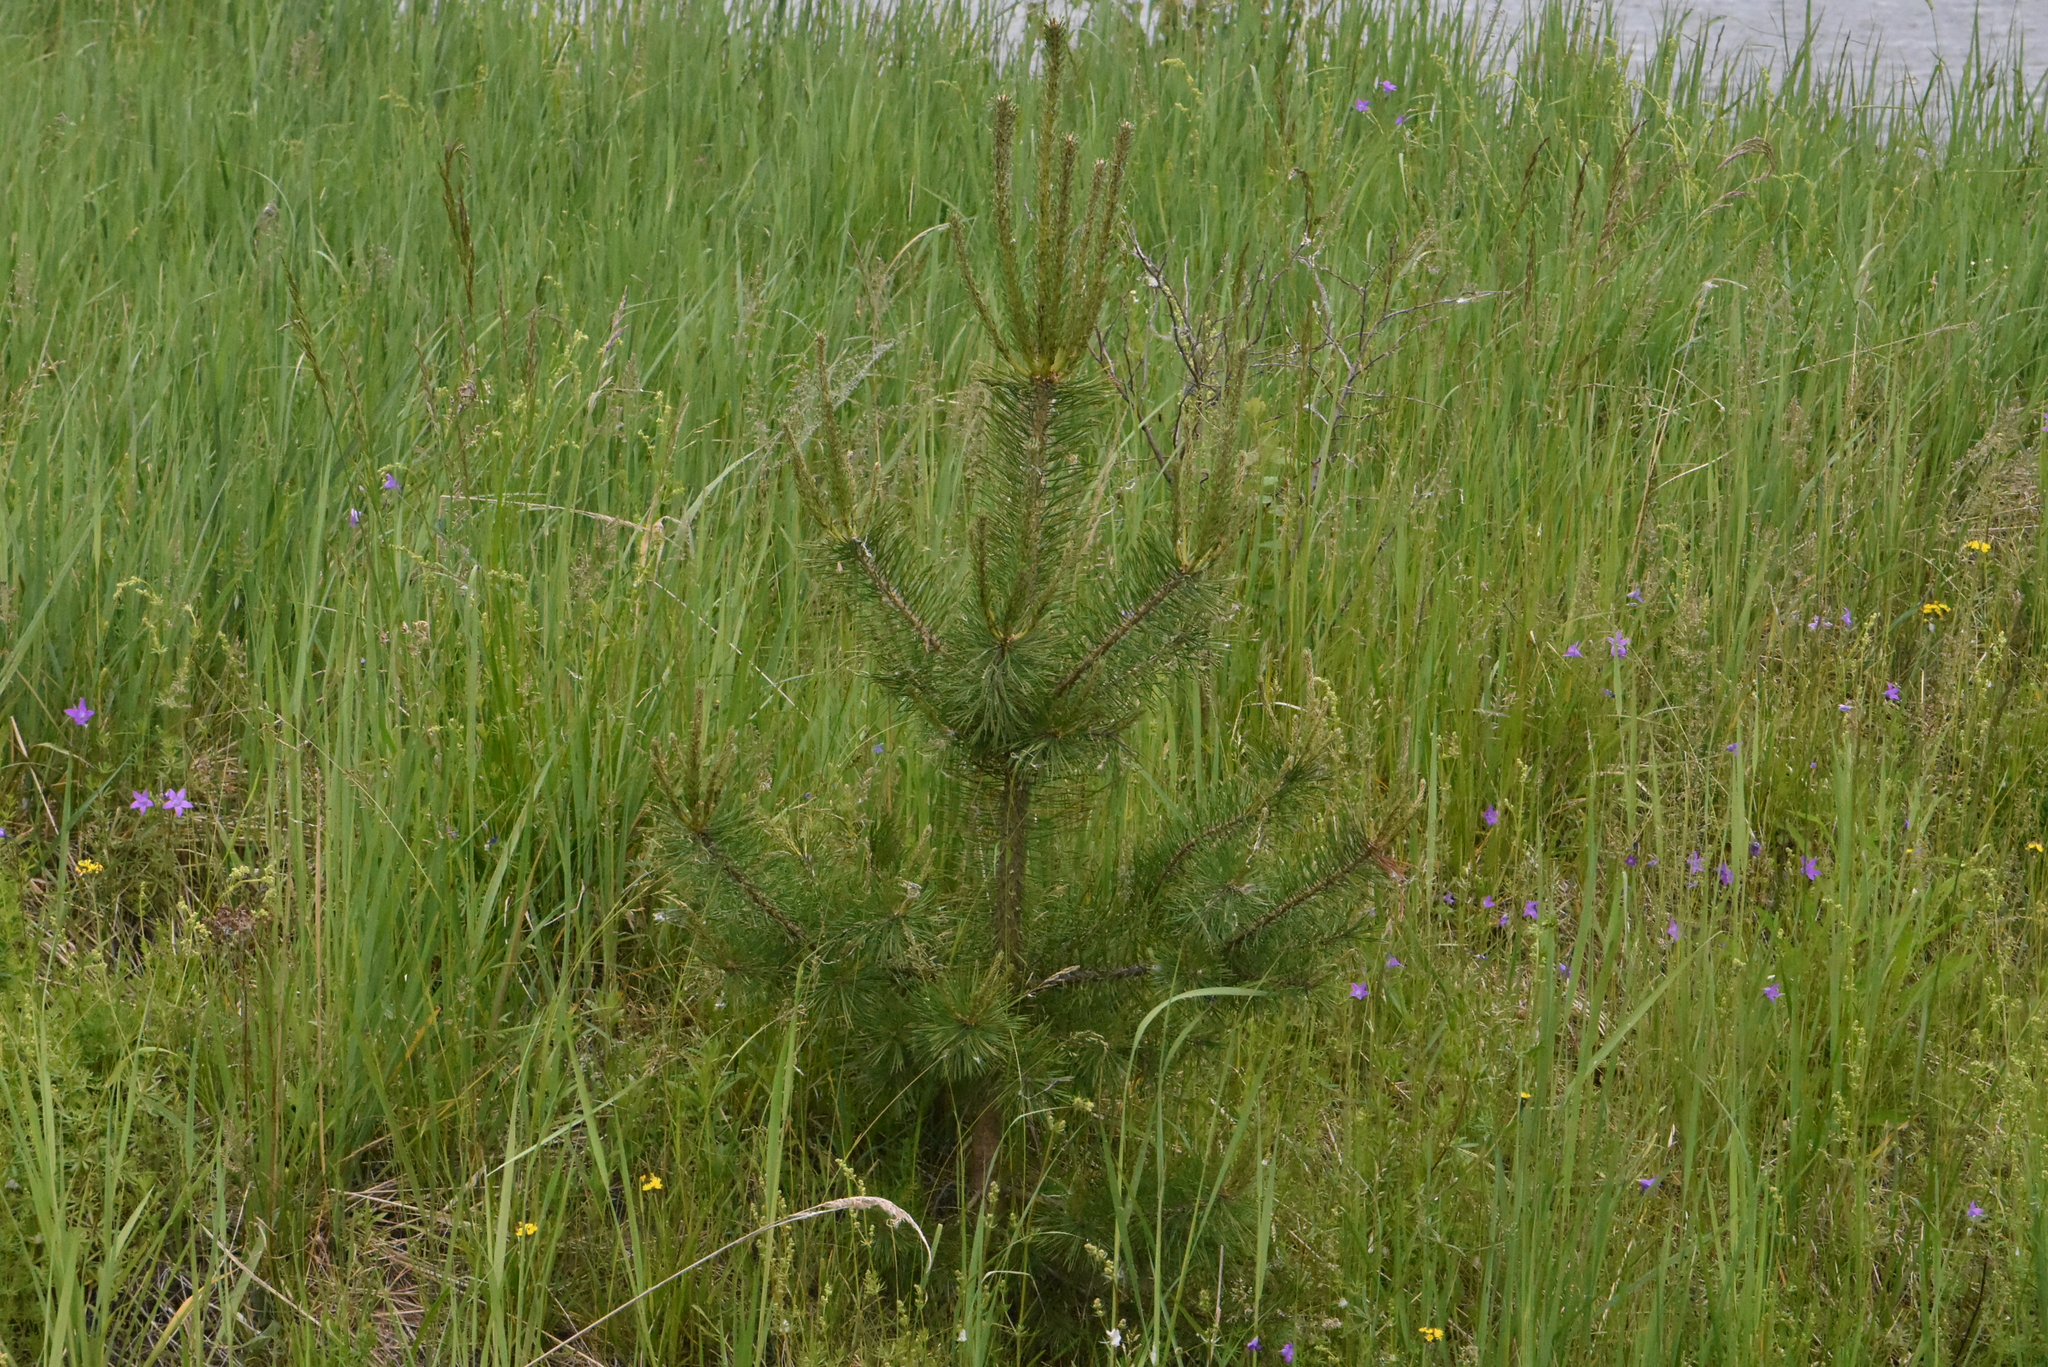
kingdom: Plantae
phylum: Tracheophyta
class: Pinopsida
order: Pinales
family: Pinaceae
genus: Pinus
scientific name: Pinus sylvestris
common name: Scots pine
